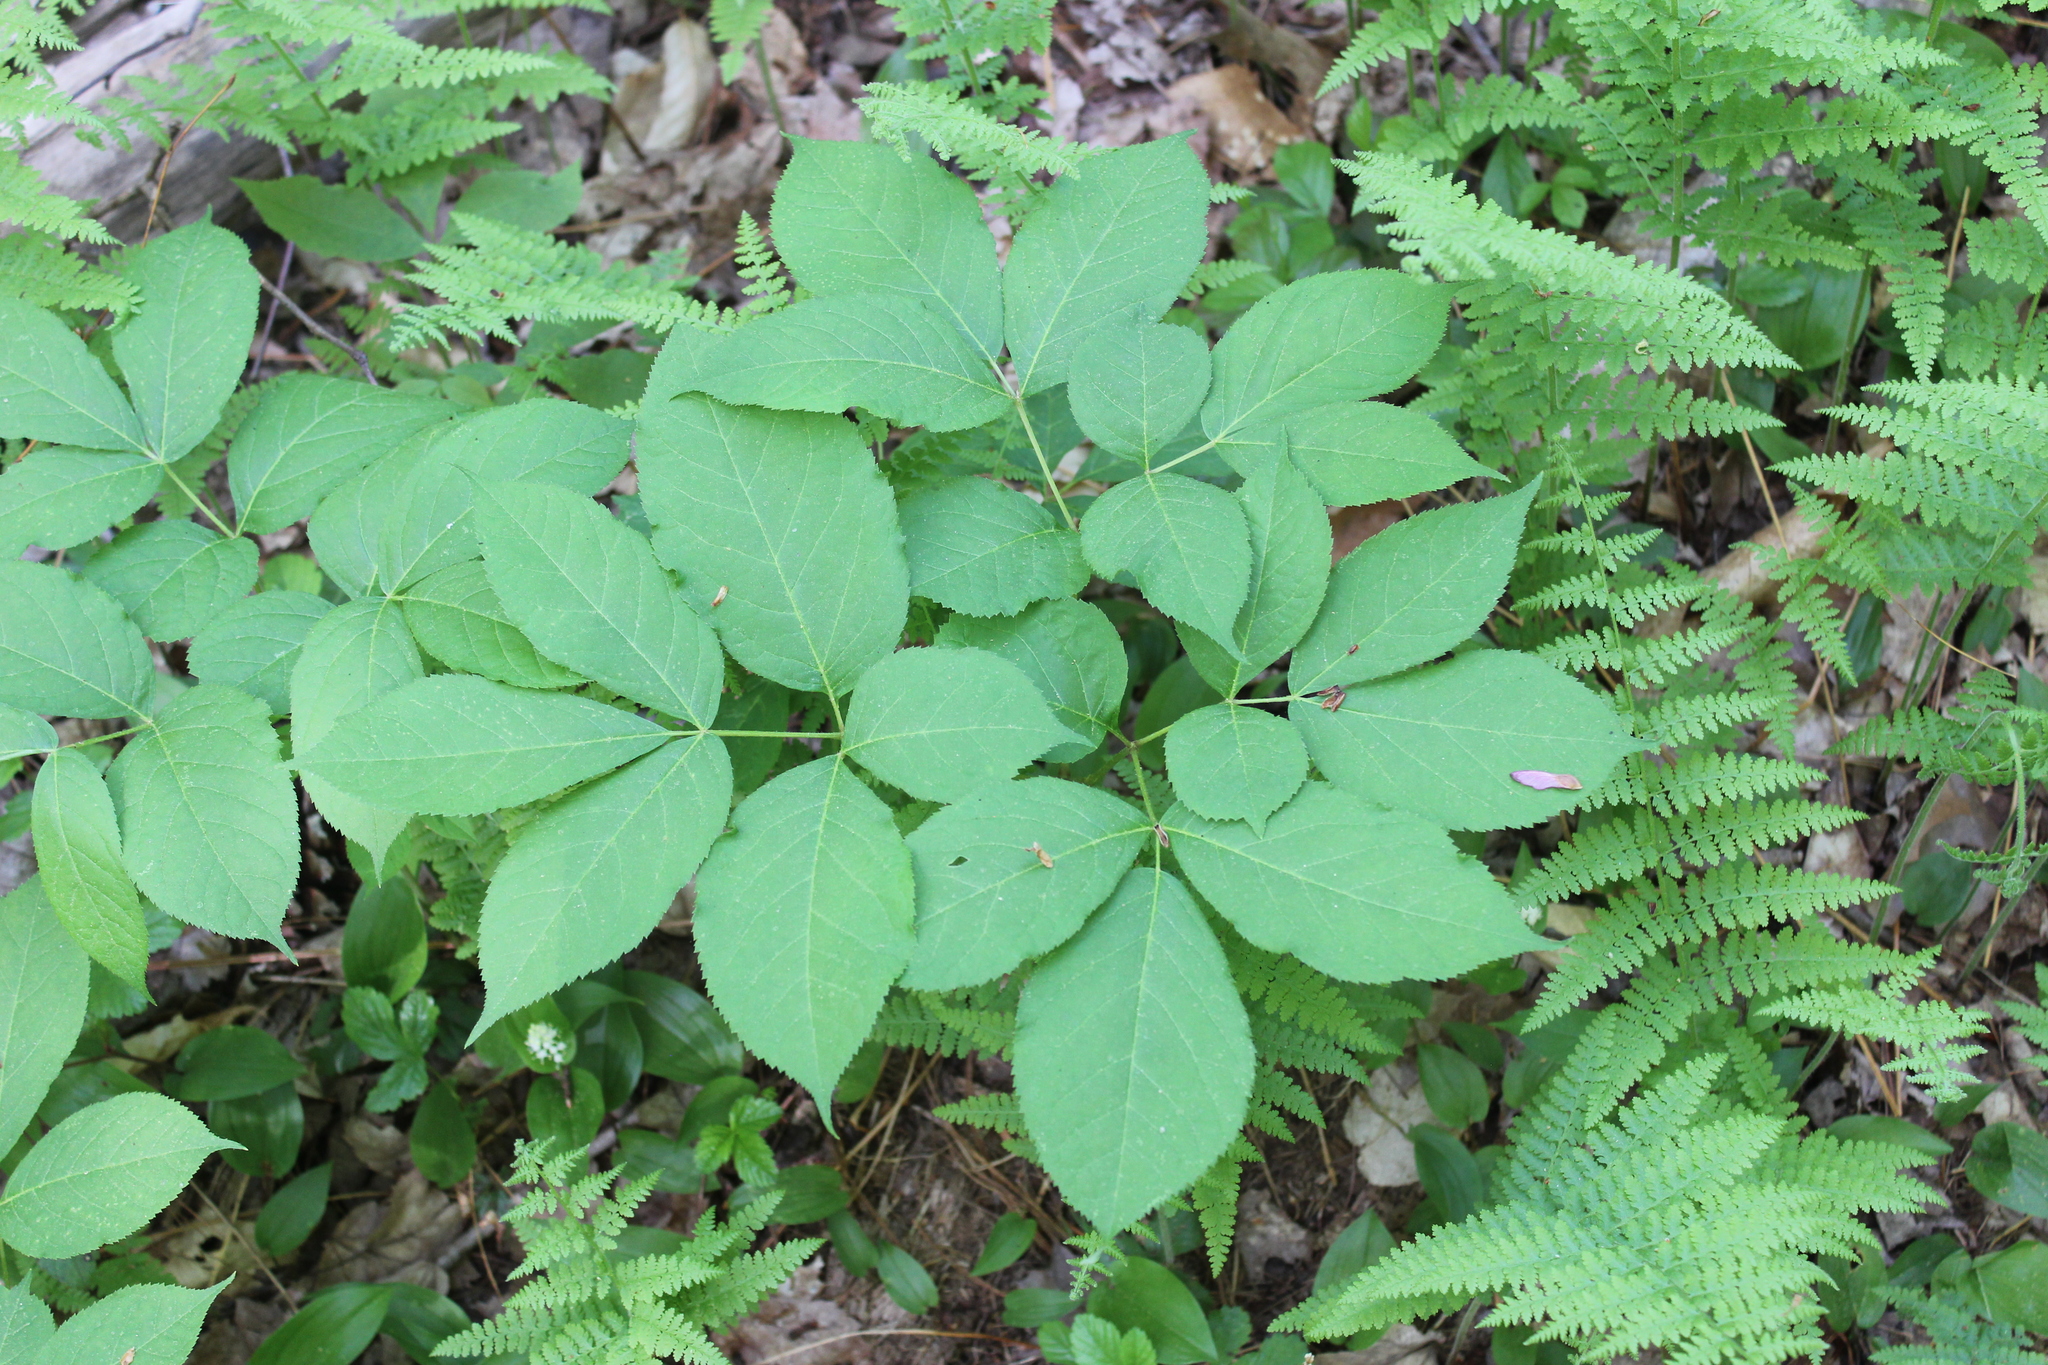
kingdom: Plantae
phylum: Tracheophyta
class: Magnoliopsida
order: Apiales
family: Araliaceae
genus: Aralia
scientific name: Aralia nudicaulis
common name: Wild sarsaparilla
